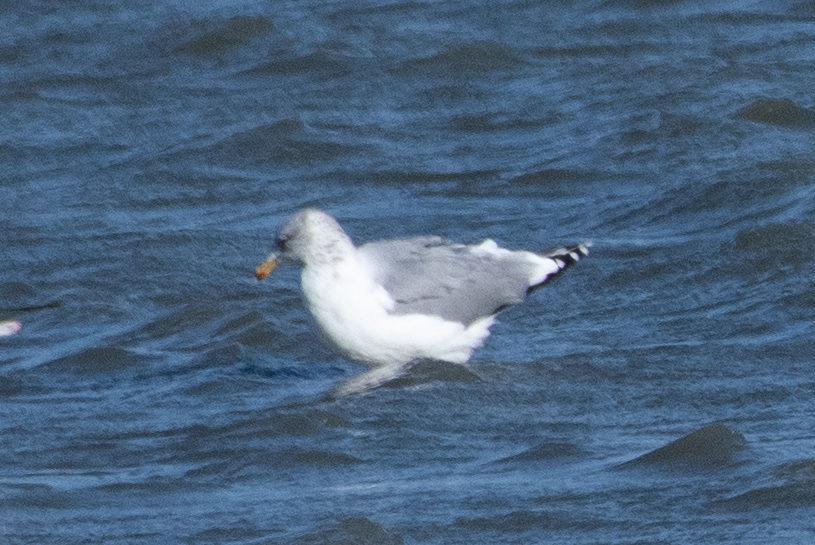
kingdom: Animalia
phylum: Chordata
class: Aves
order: Charadriiformes
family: Laridae
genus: Larus
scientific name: Larus californicus
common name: California gull
